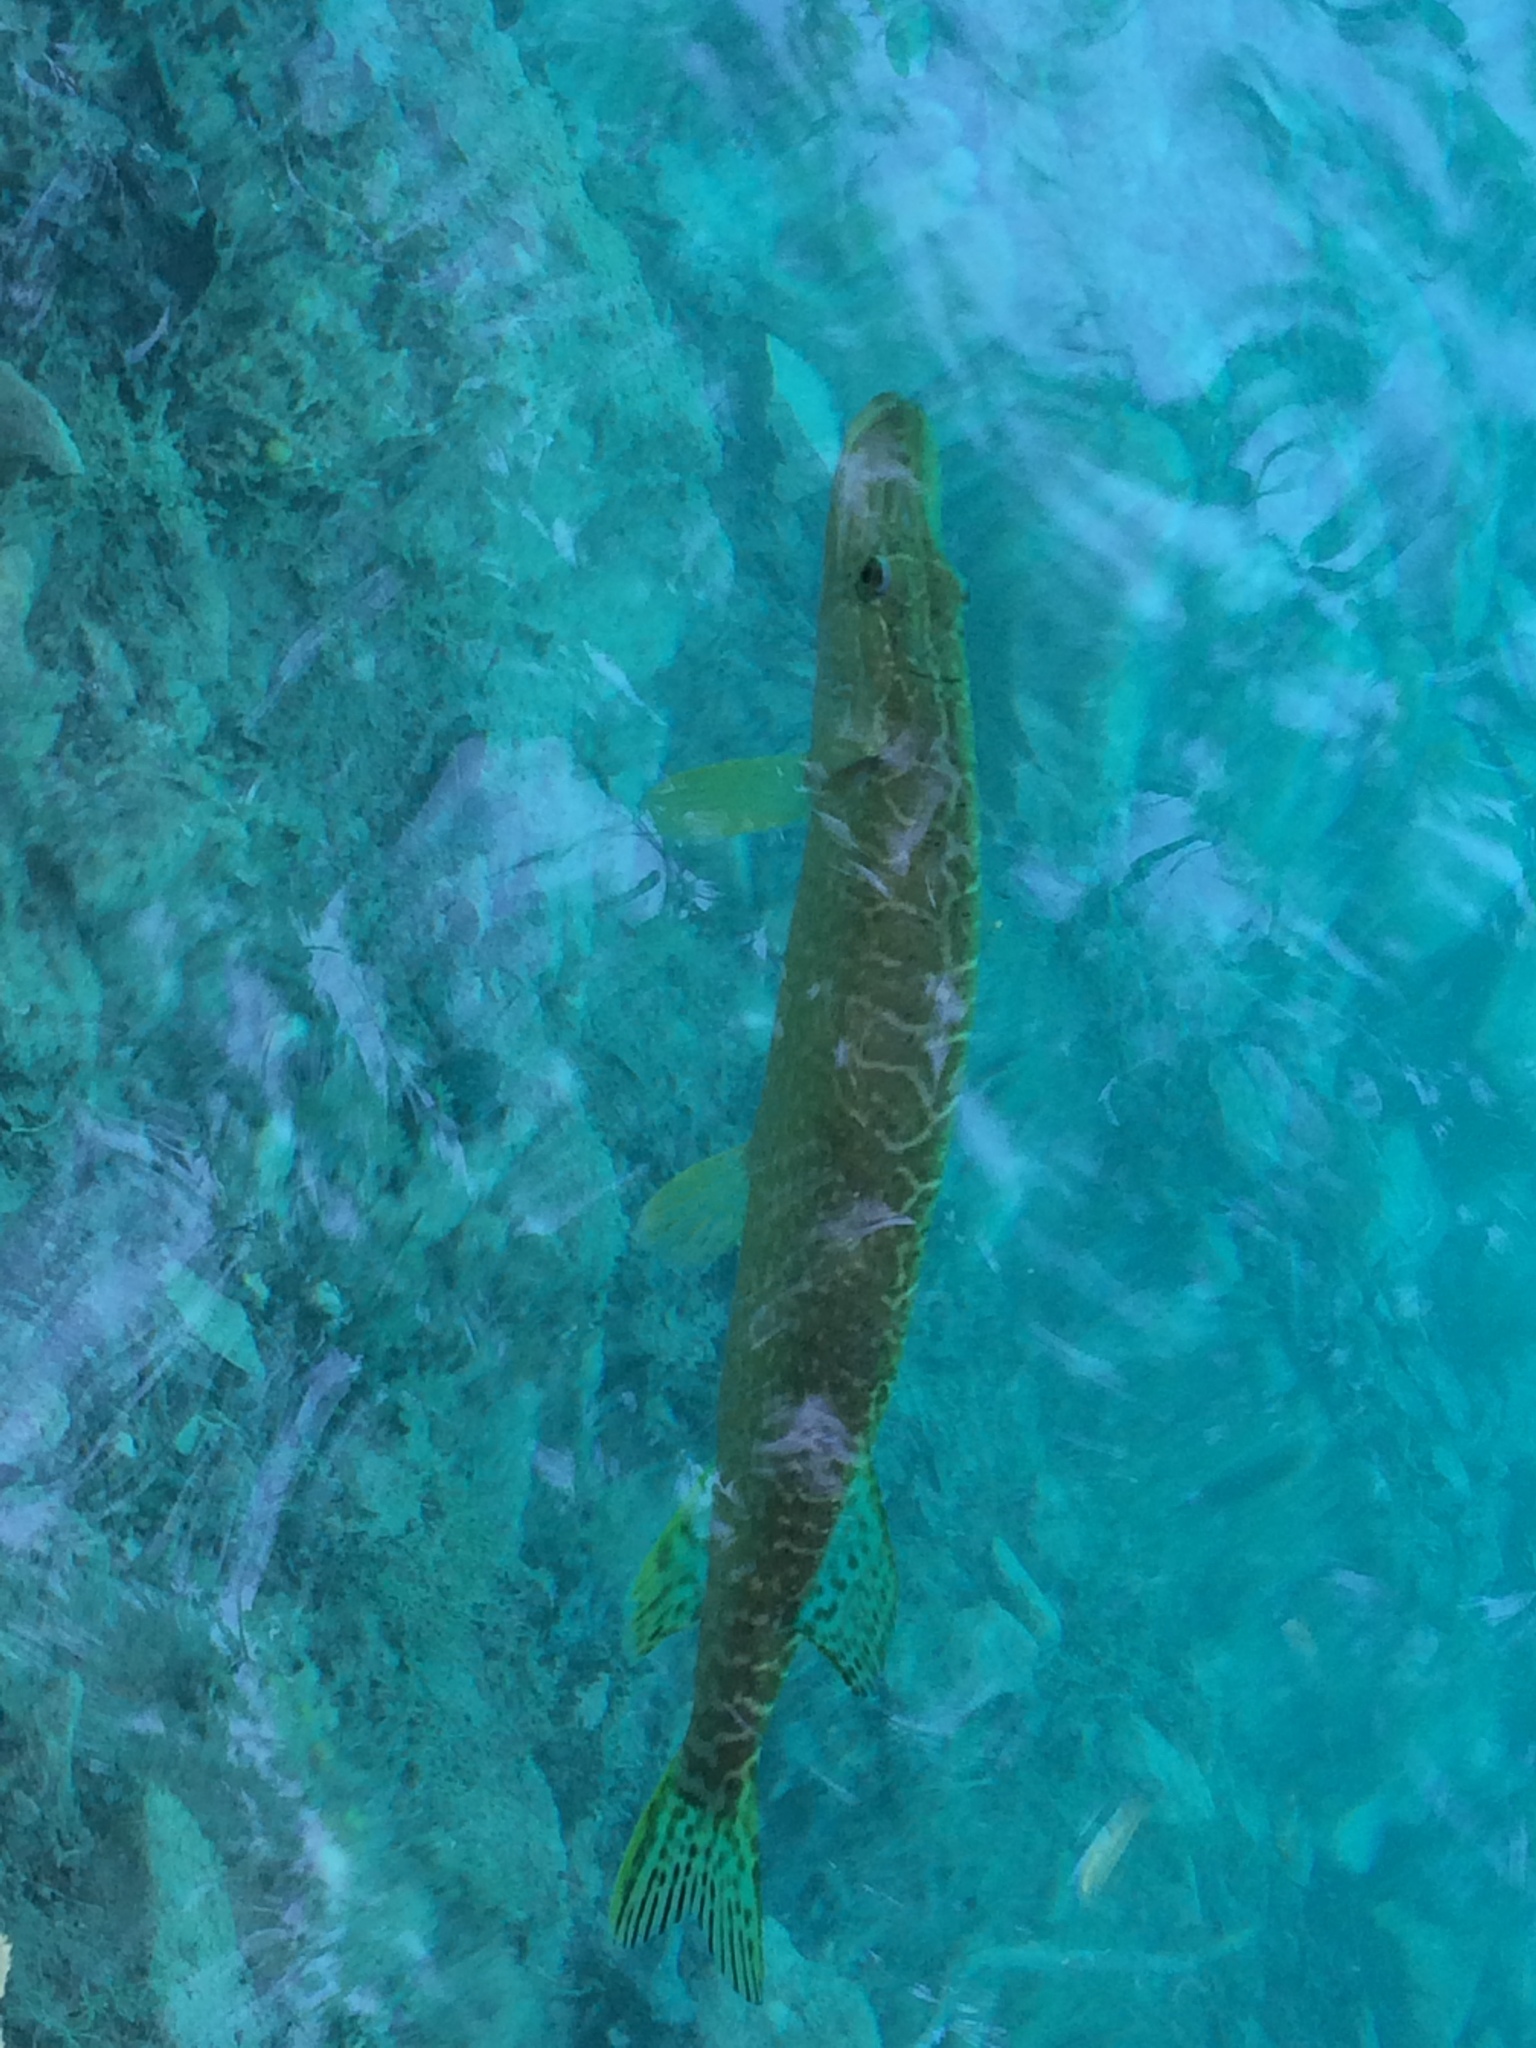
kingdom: Animalia
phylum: Chordata
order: Esociformes
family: Esocidae
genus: Esox
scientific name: Esox lucius
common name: Northern pike
